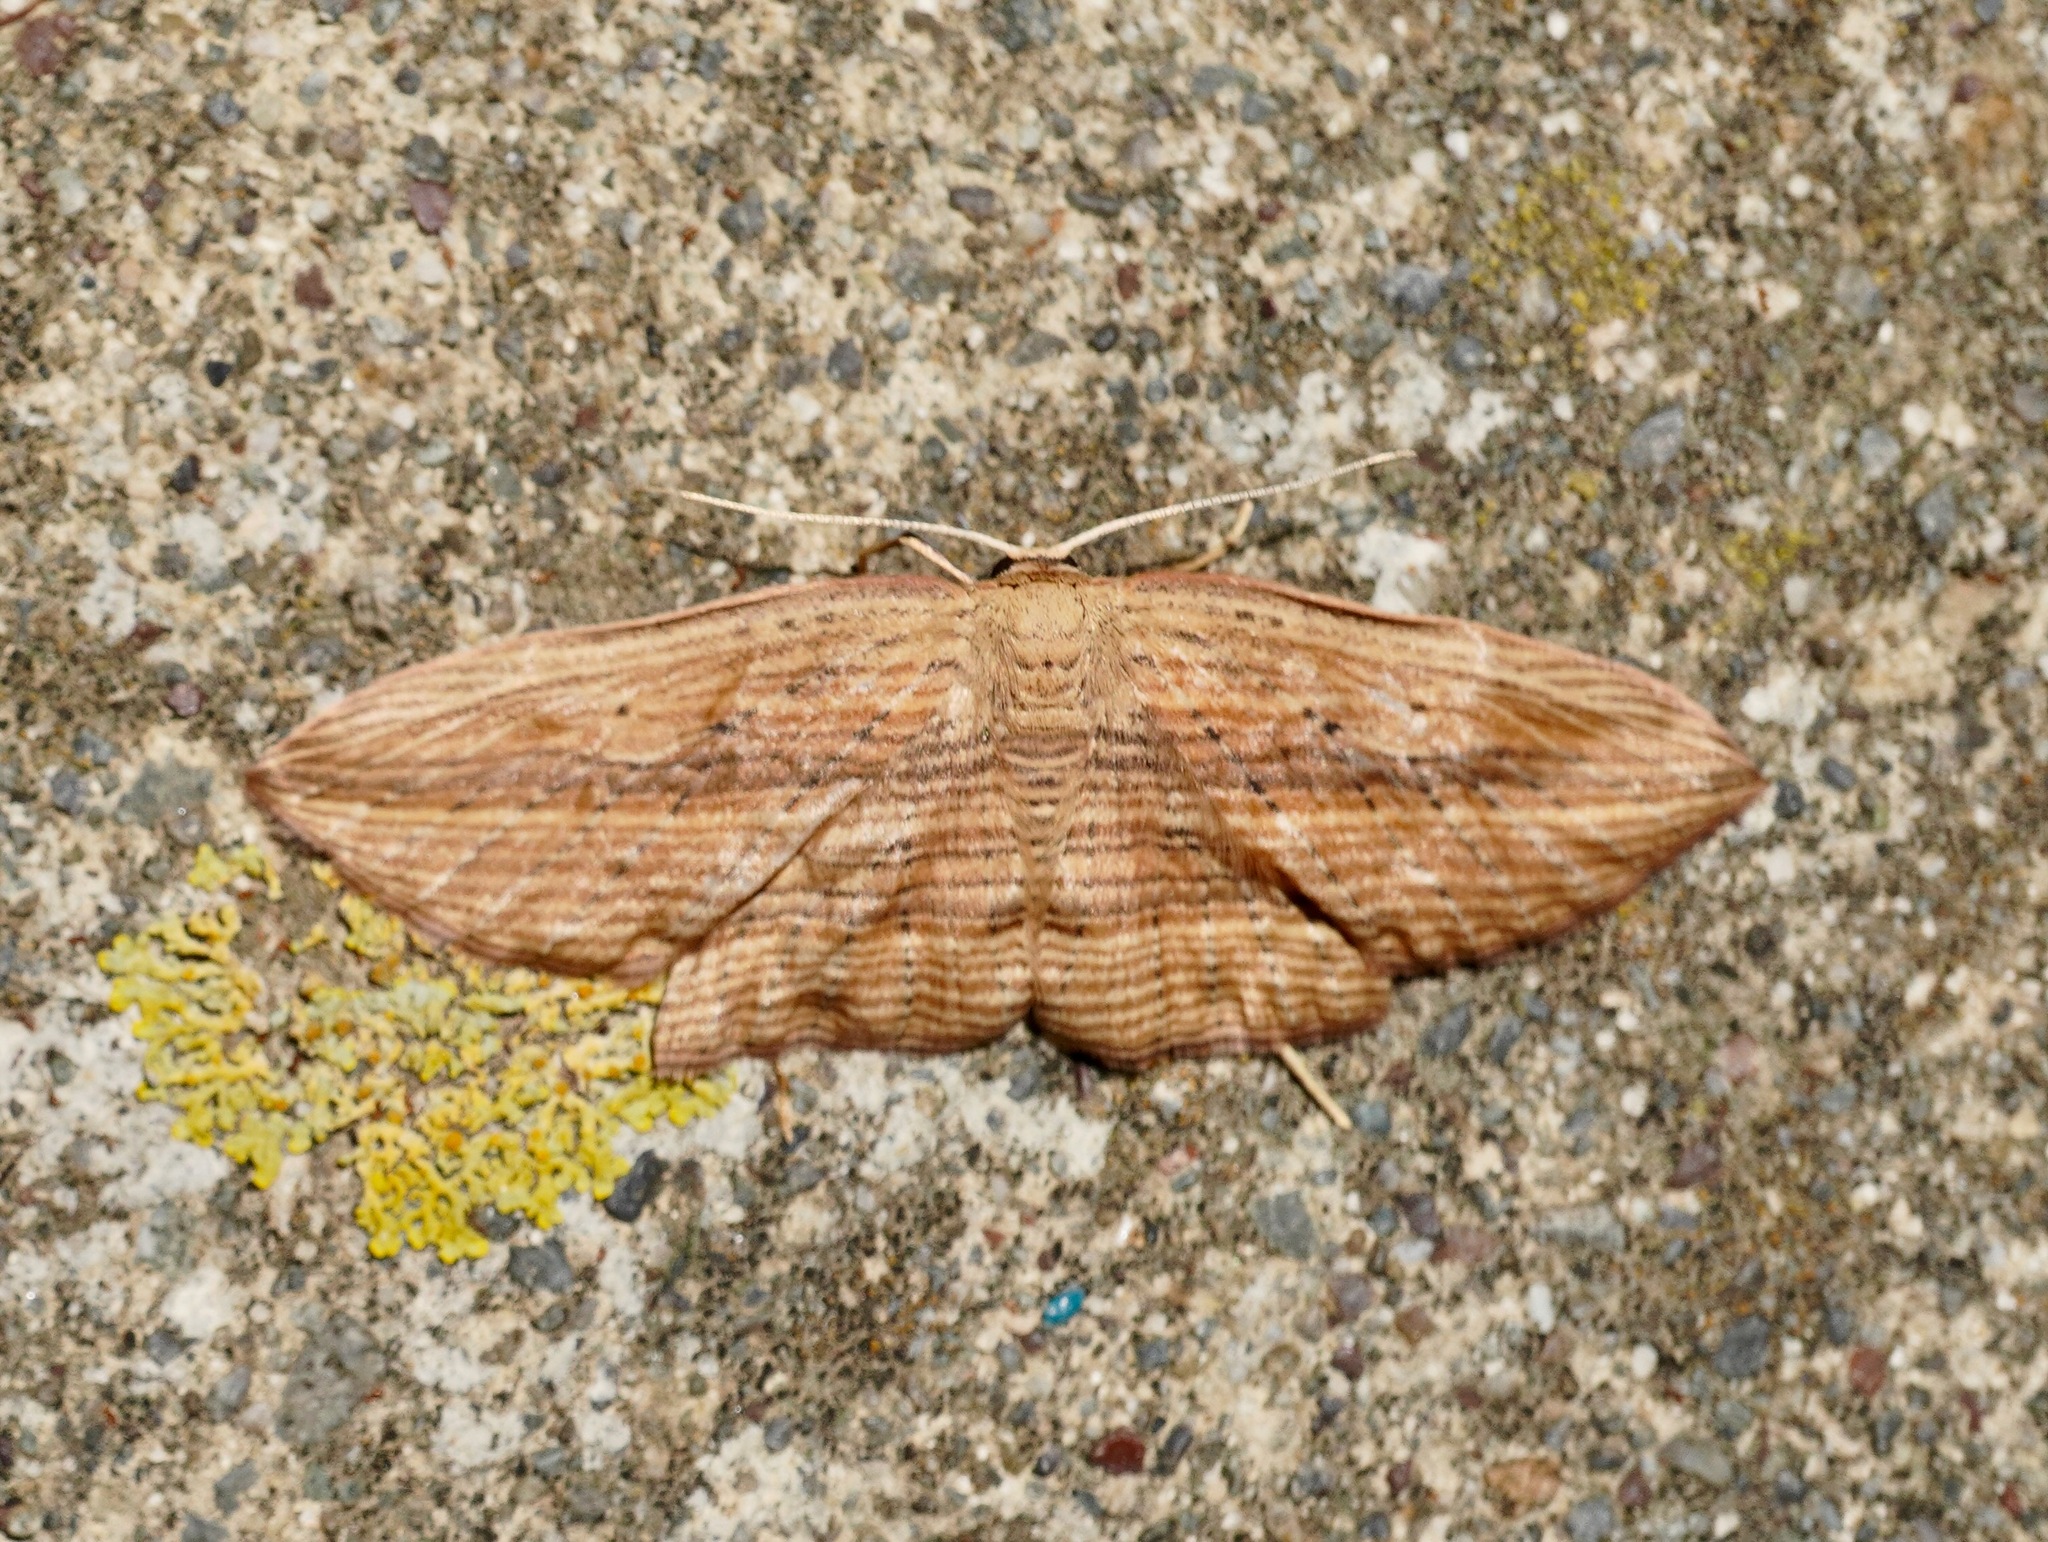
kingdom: Animalia
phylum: Arthropoda
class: Insecta
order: Lepidoptera
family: Geometridae
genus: Epiphryne
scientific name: Epiphryne verriculata
